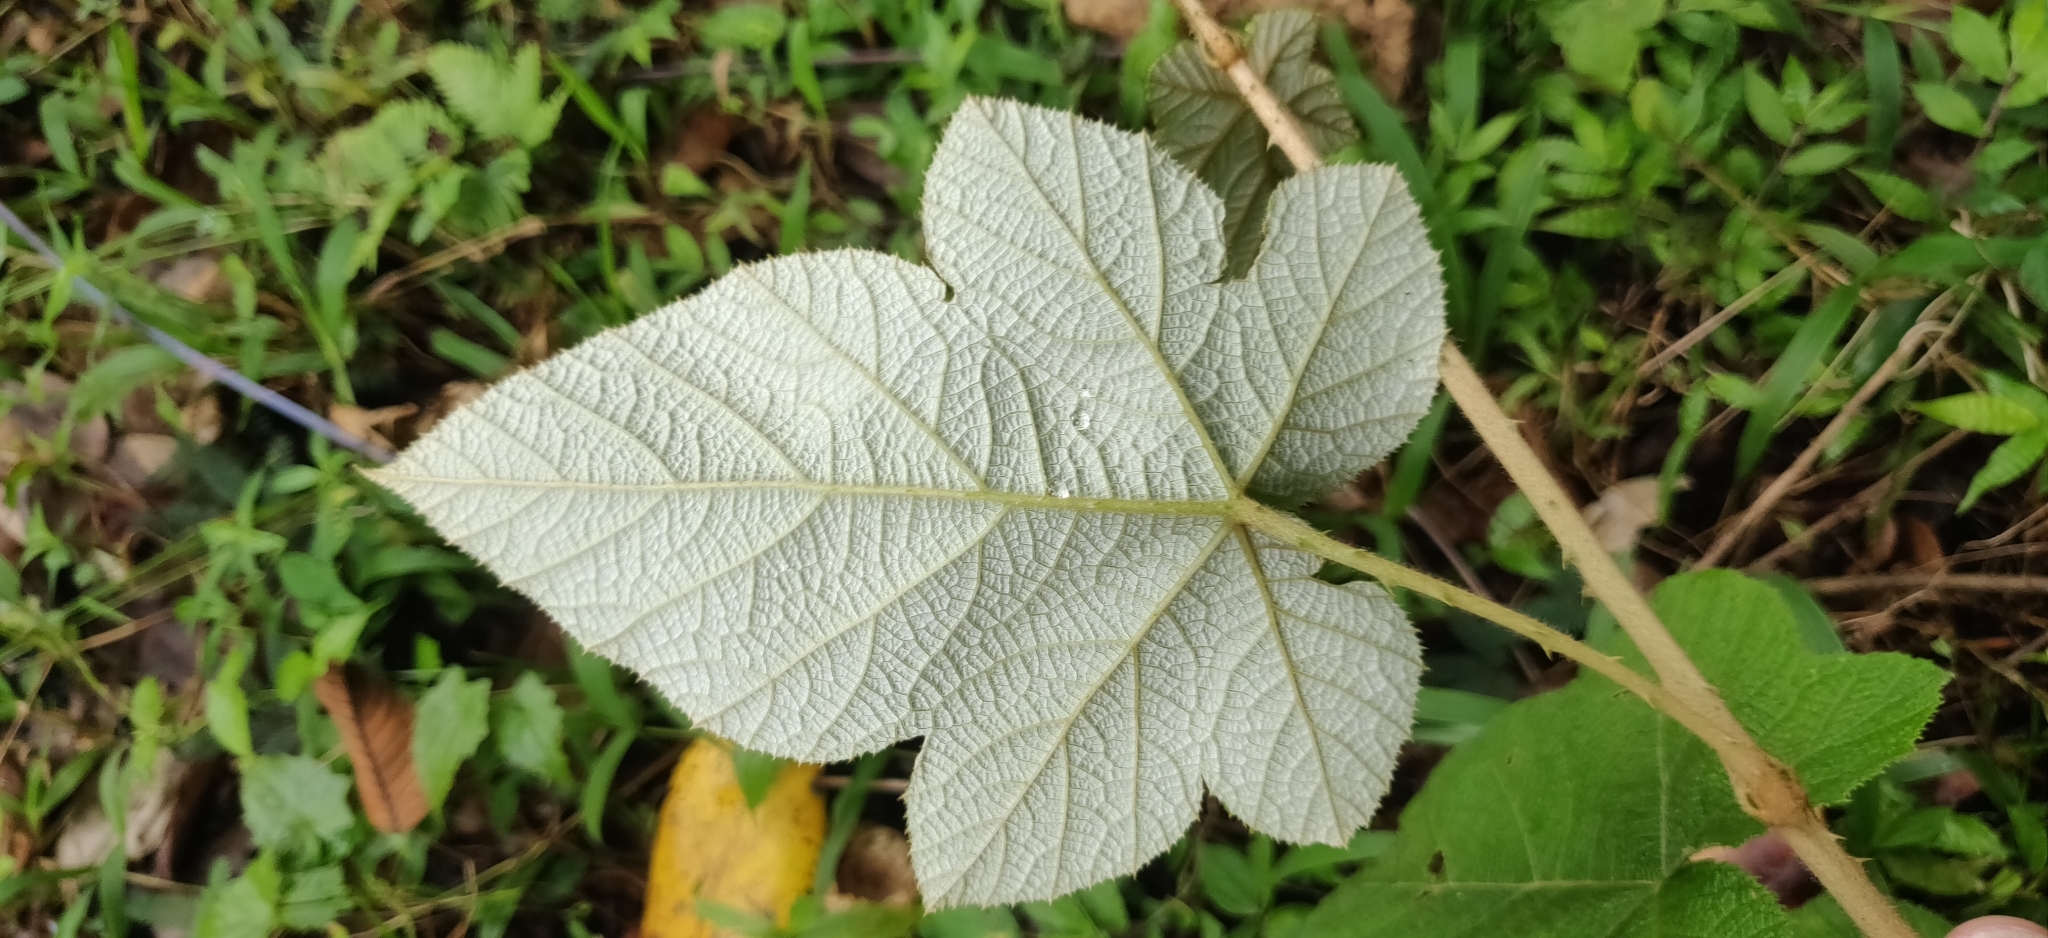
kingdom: Plantae
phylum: Tracheophyta
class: Magnoliopsida
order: Rosales
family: Rosaceae
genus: Rubus
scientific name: Rubus fairholmianus
